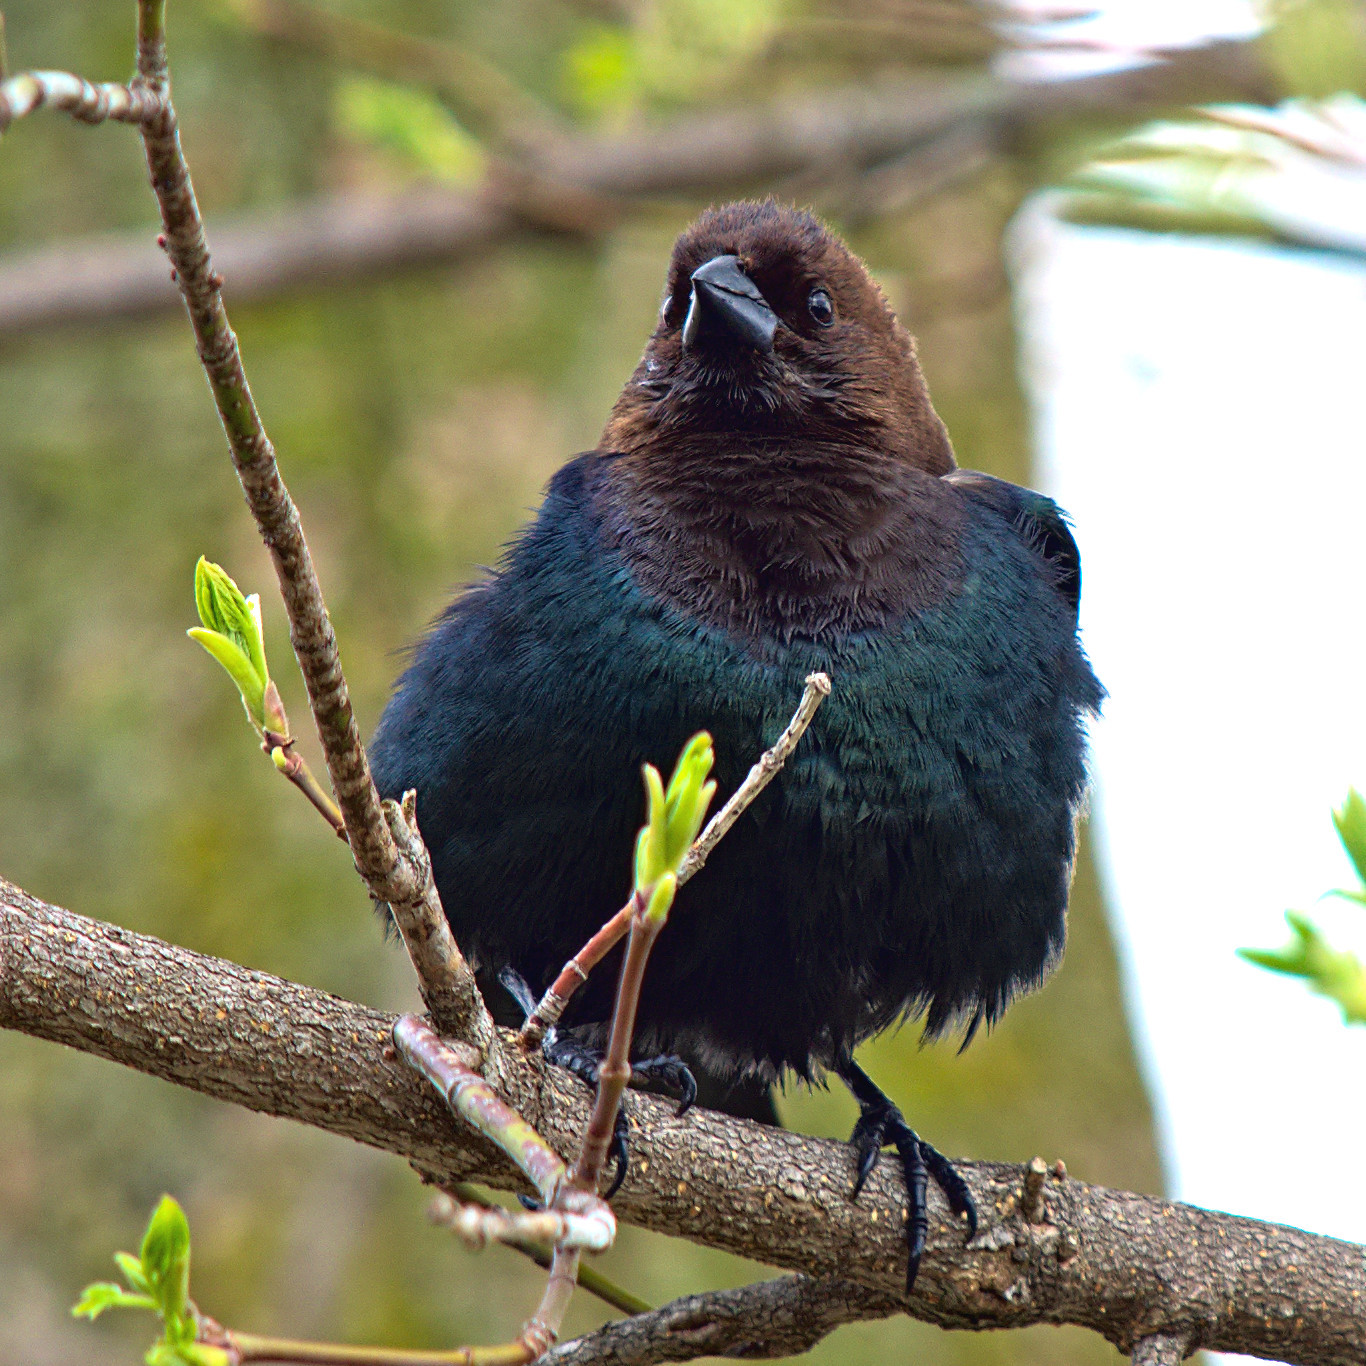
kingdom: Animalia
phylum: Chordata
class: Aves
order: Passeriformes
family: Icteridae
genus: Molothrus
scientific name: Molothrus ater
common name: Brown-headed cowbird
